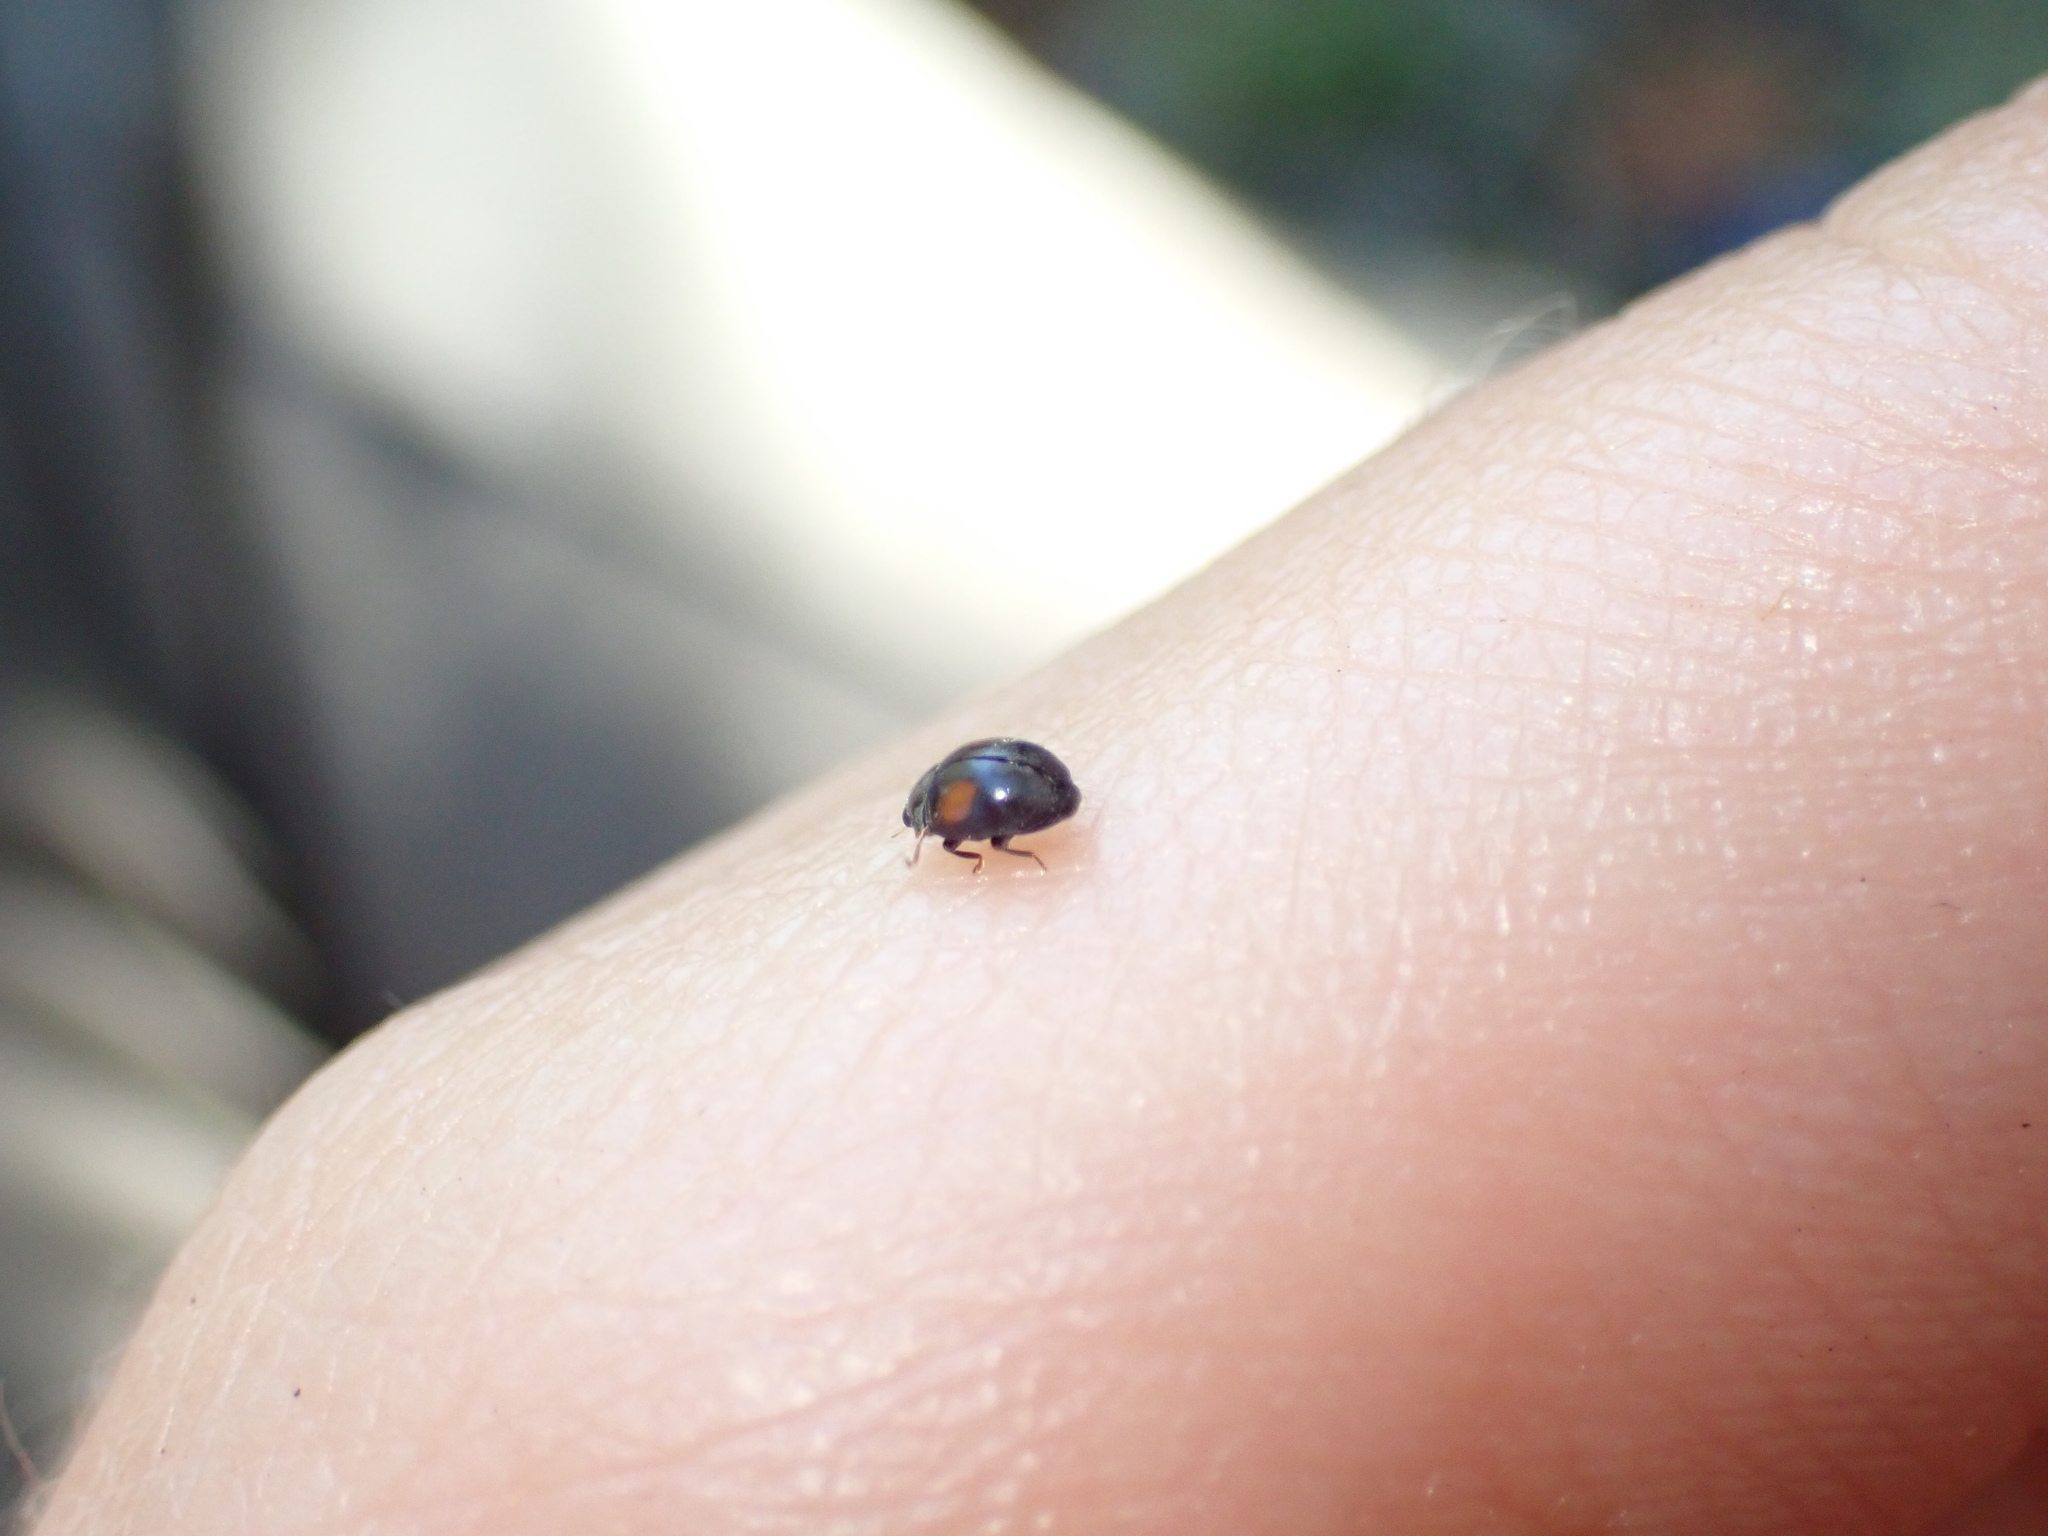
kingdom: Animalia
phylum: Arthropoda
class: Insecta
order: Coleoptera
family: Coccinellidae
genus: Scymnus
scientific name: Scymnus
